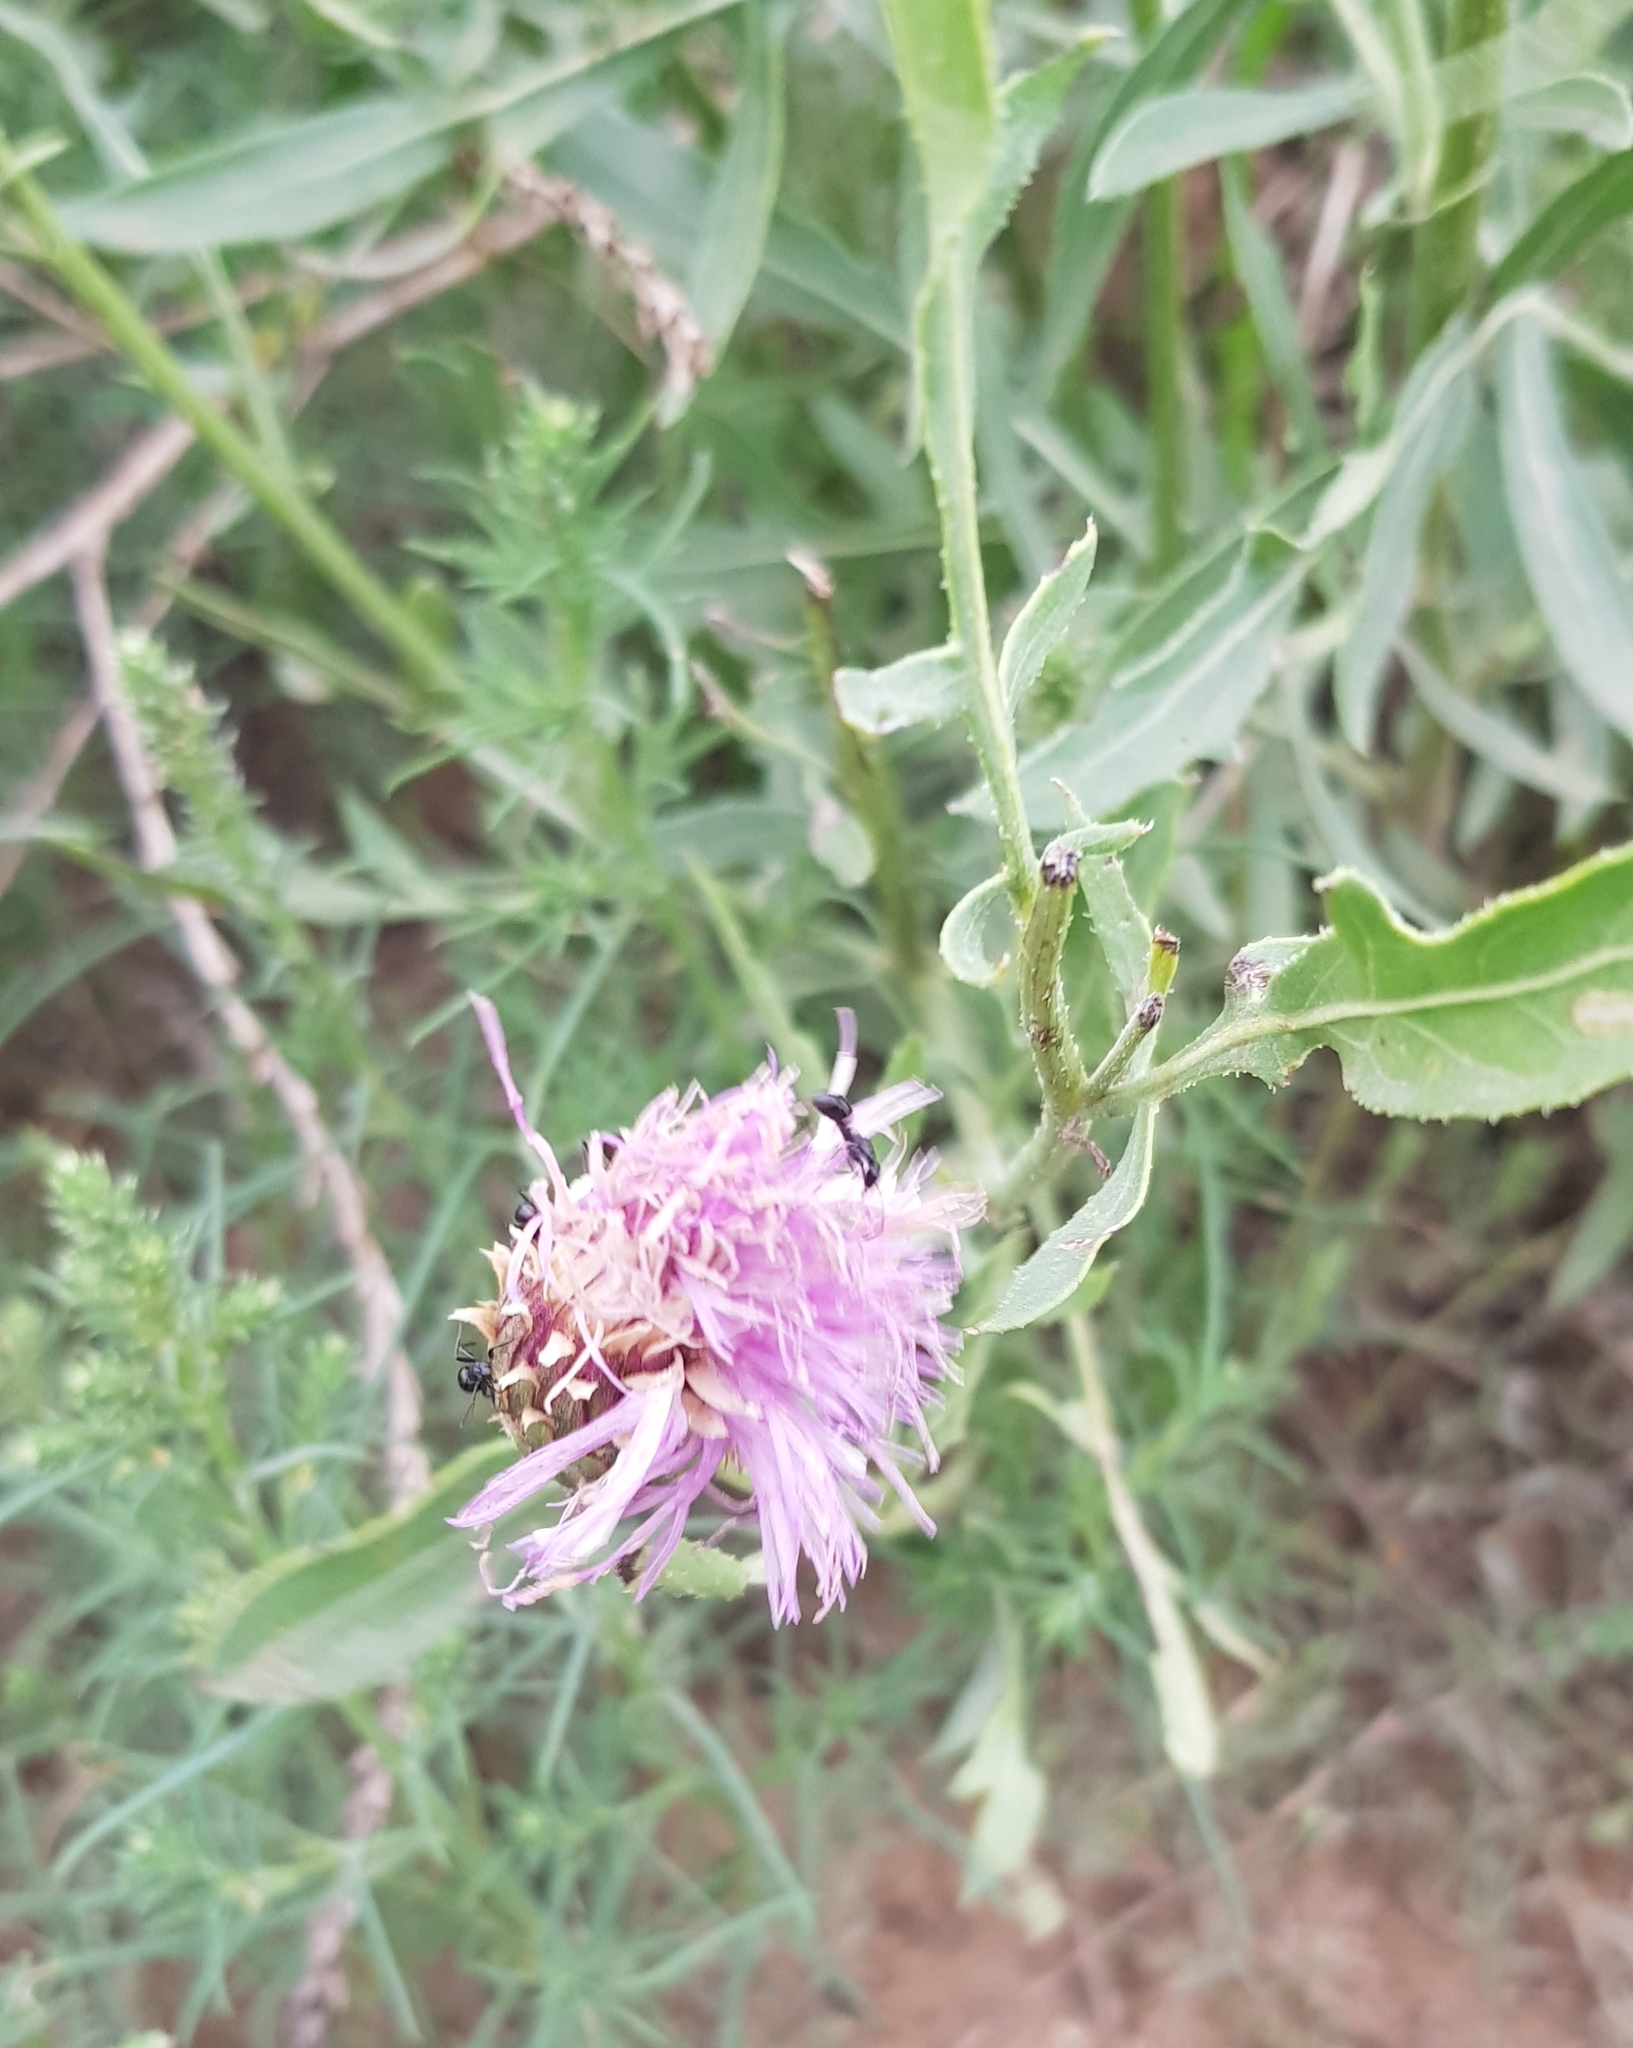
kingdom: Plantae
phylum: Tracheophyta
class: Magnoliopsida
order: Asterales
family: Asteraceae
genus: Klasea
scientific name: Klasea centauroides
